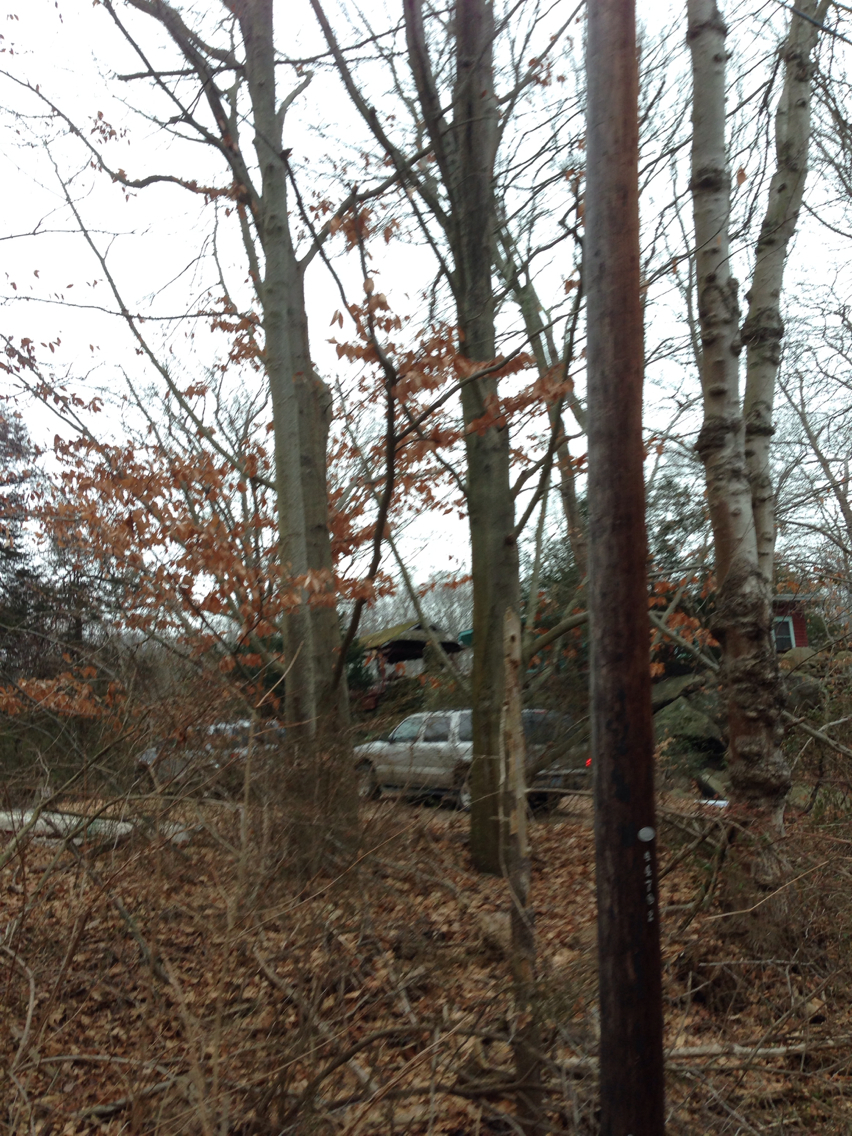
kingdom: Plantae
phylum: Tracheophyta
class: Magnoliopsida
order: Fagales
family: Fagaceae
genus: Fagus
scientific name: Fagus grandifolia
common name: American beech
